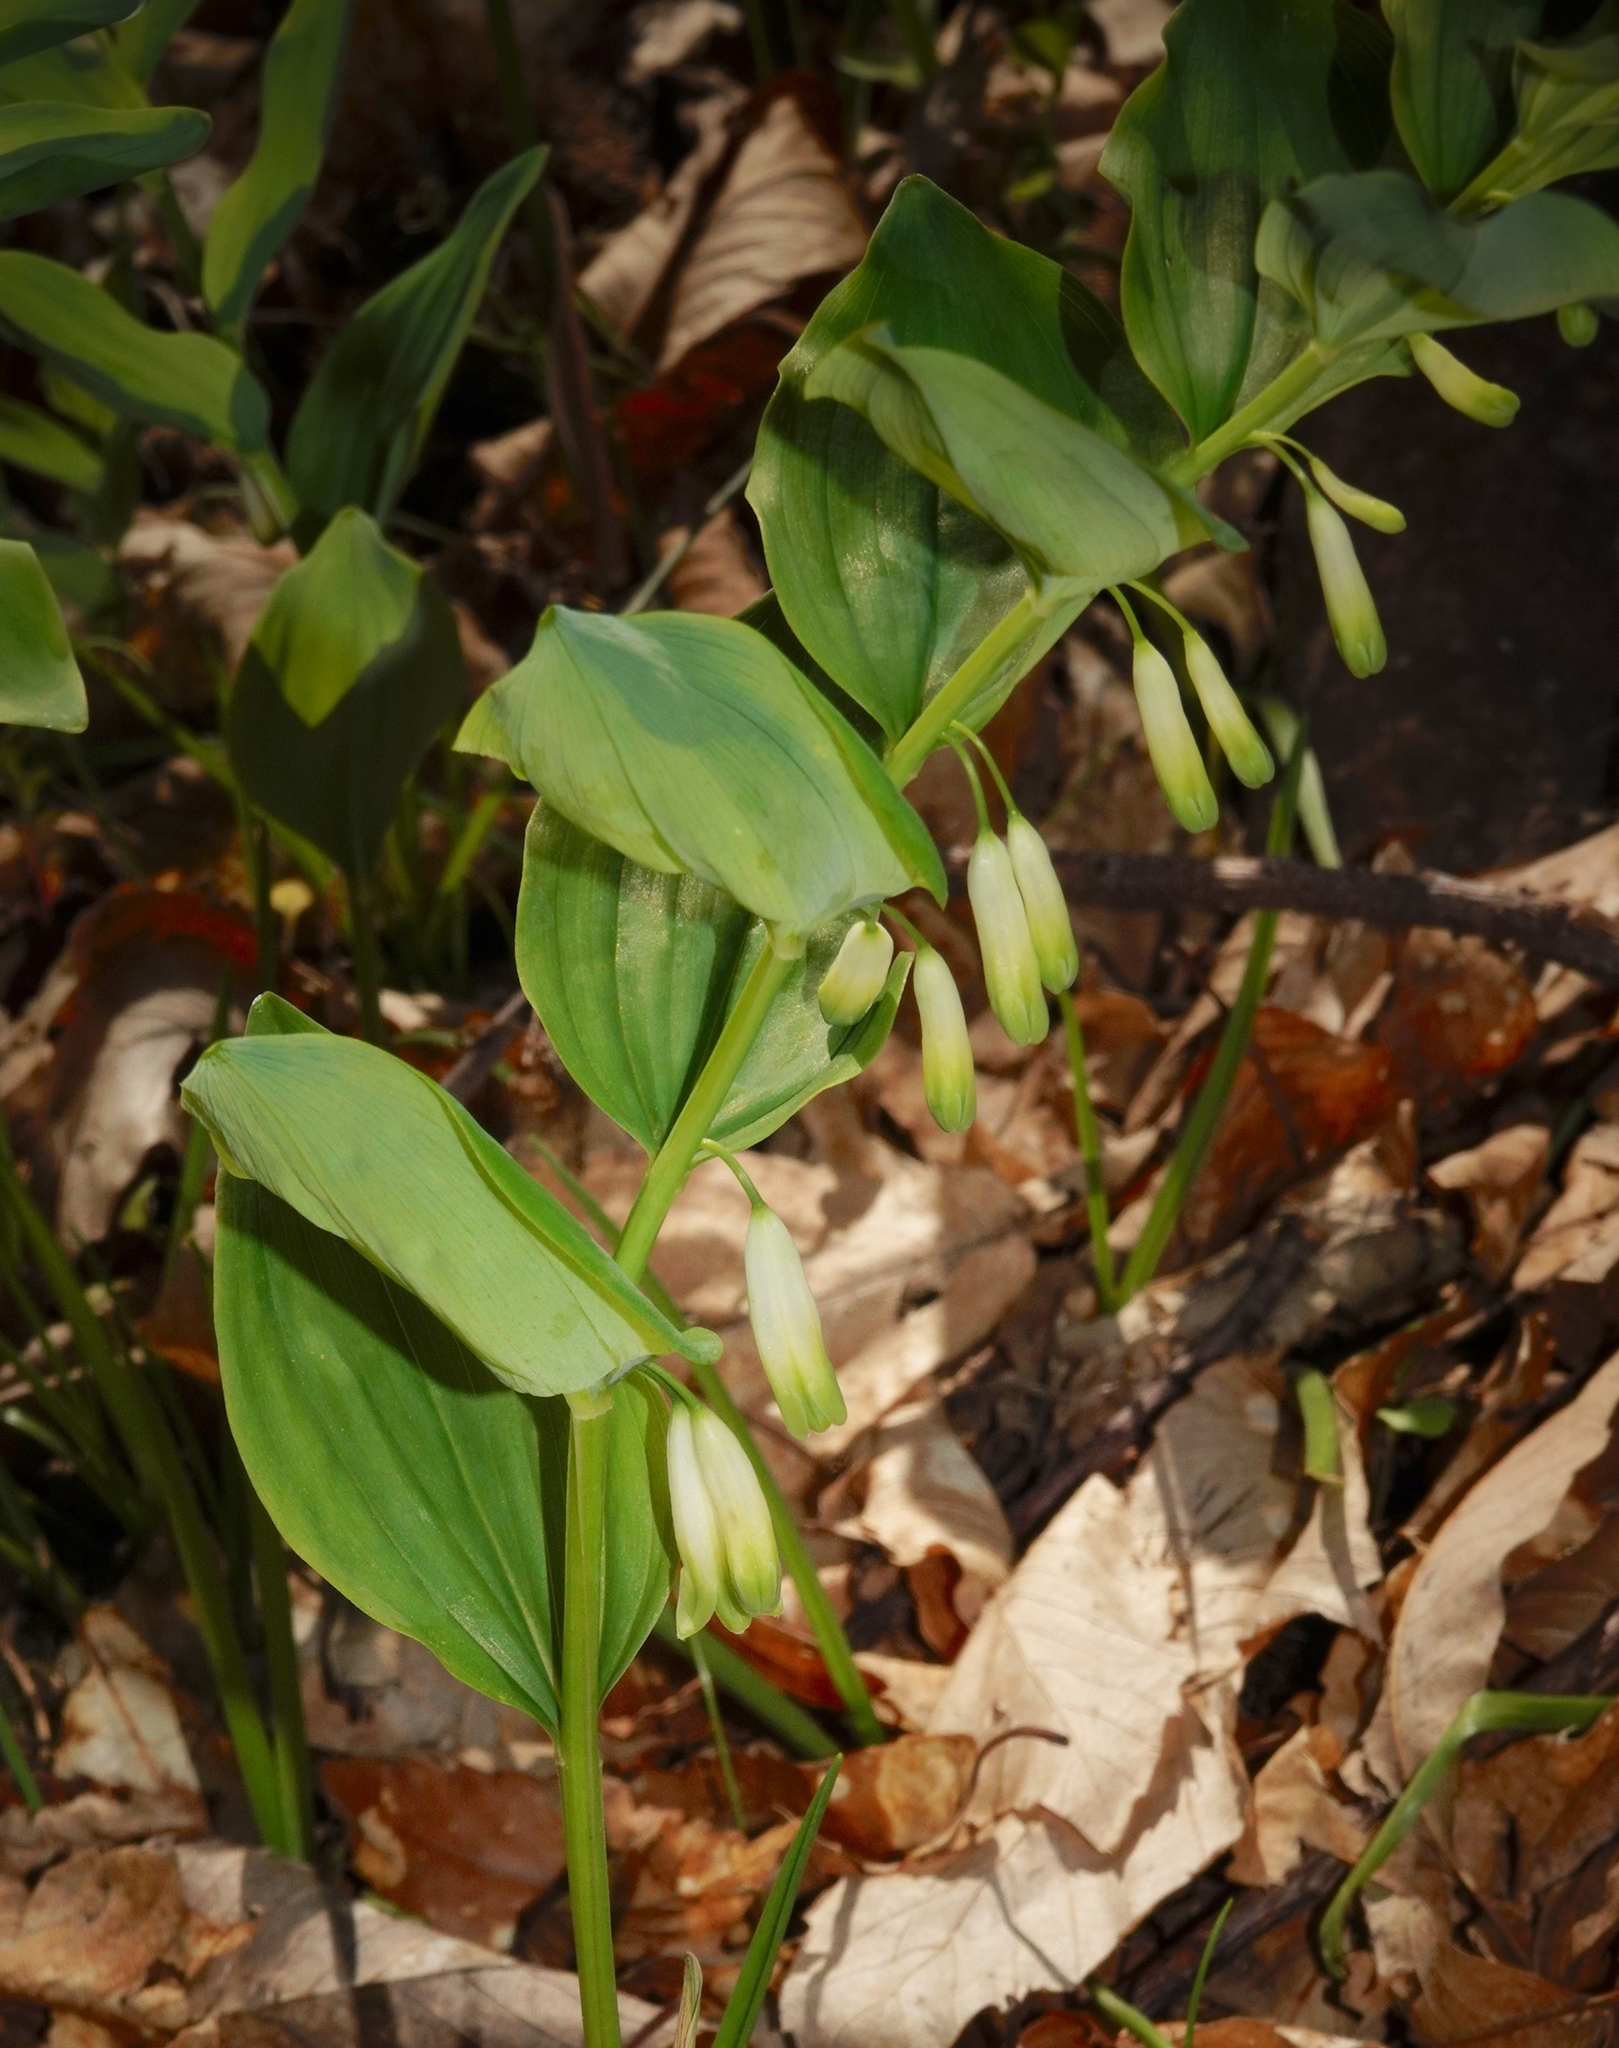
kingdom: Plantae
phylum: Tracheophyta
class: Liliopsida
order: Asparagales
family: Asparagaceae
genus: Polygonatum
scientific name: Polygonatum odoratum
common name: Angular solomon's-seal
